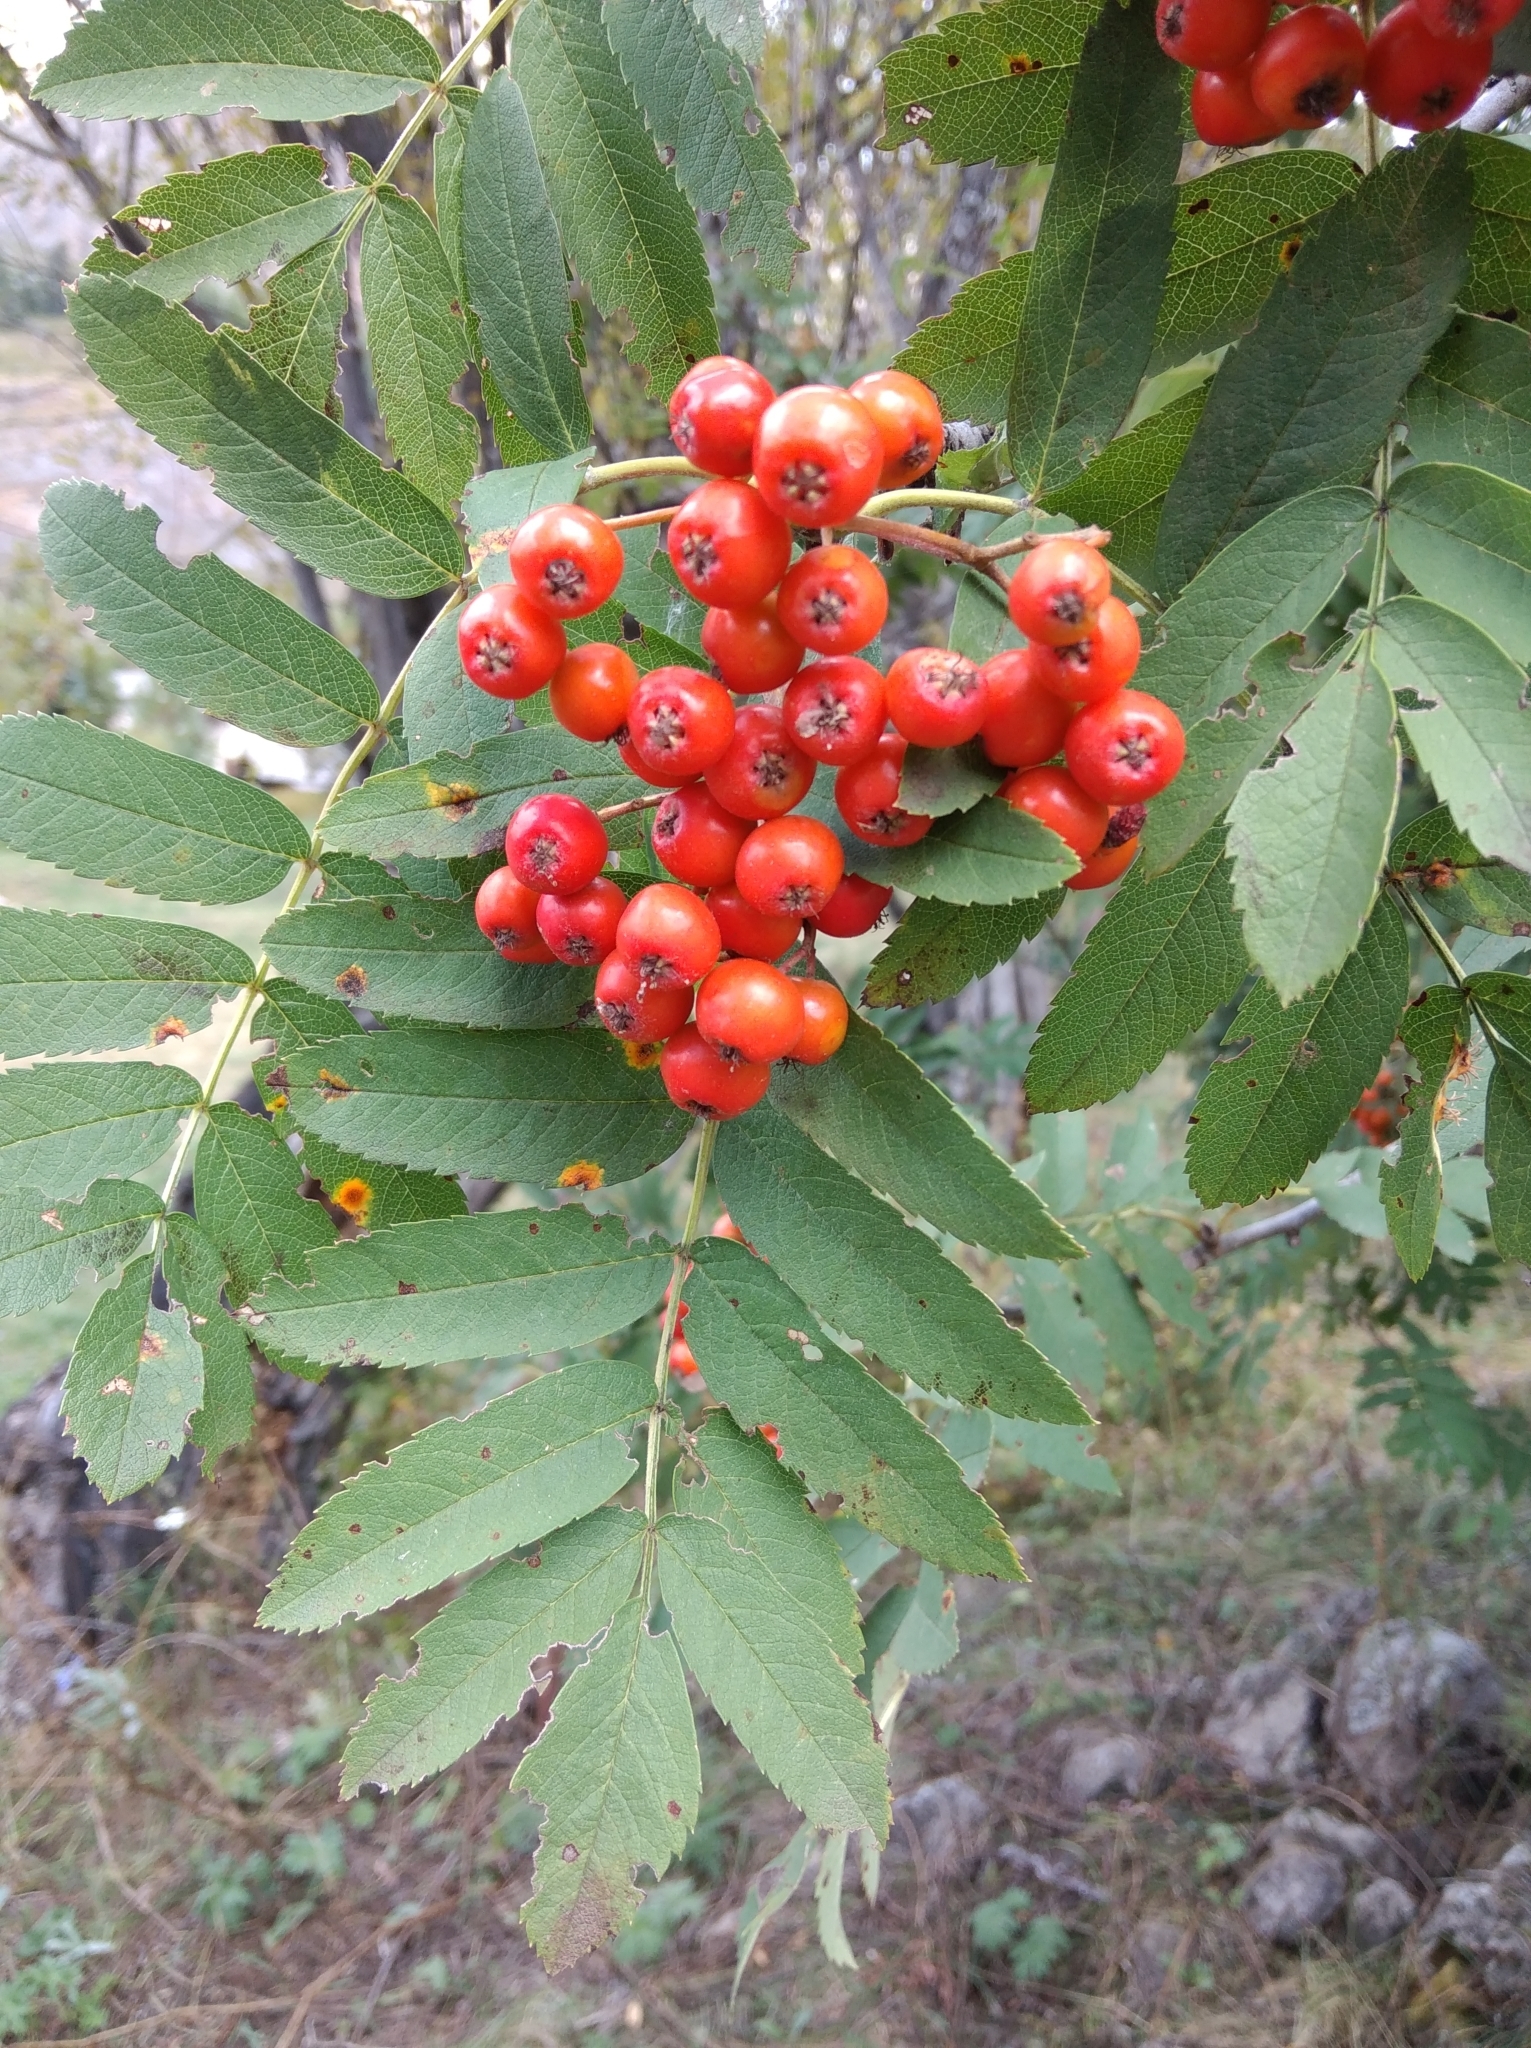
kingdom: Plantae
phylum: Tracheophyta
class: Magnoliopsida
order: Rosales
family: Rosaceae
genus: Sorbus
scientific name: Sorbus aucuparia
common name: Rowan
